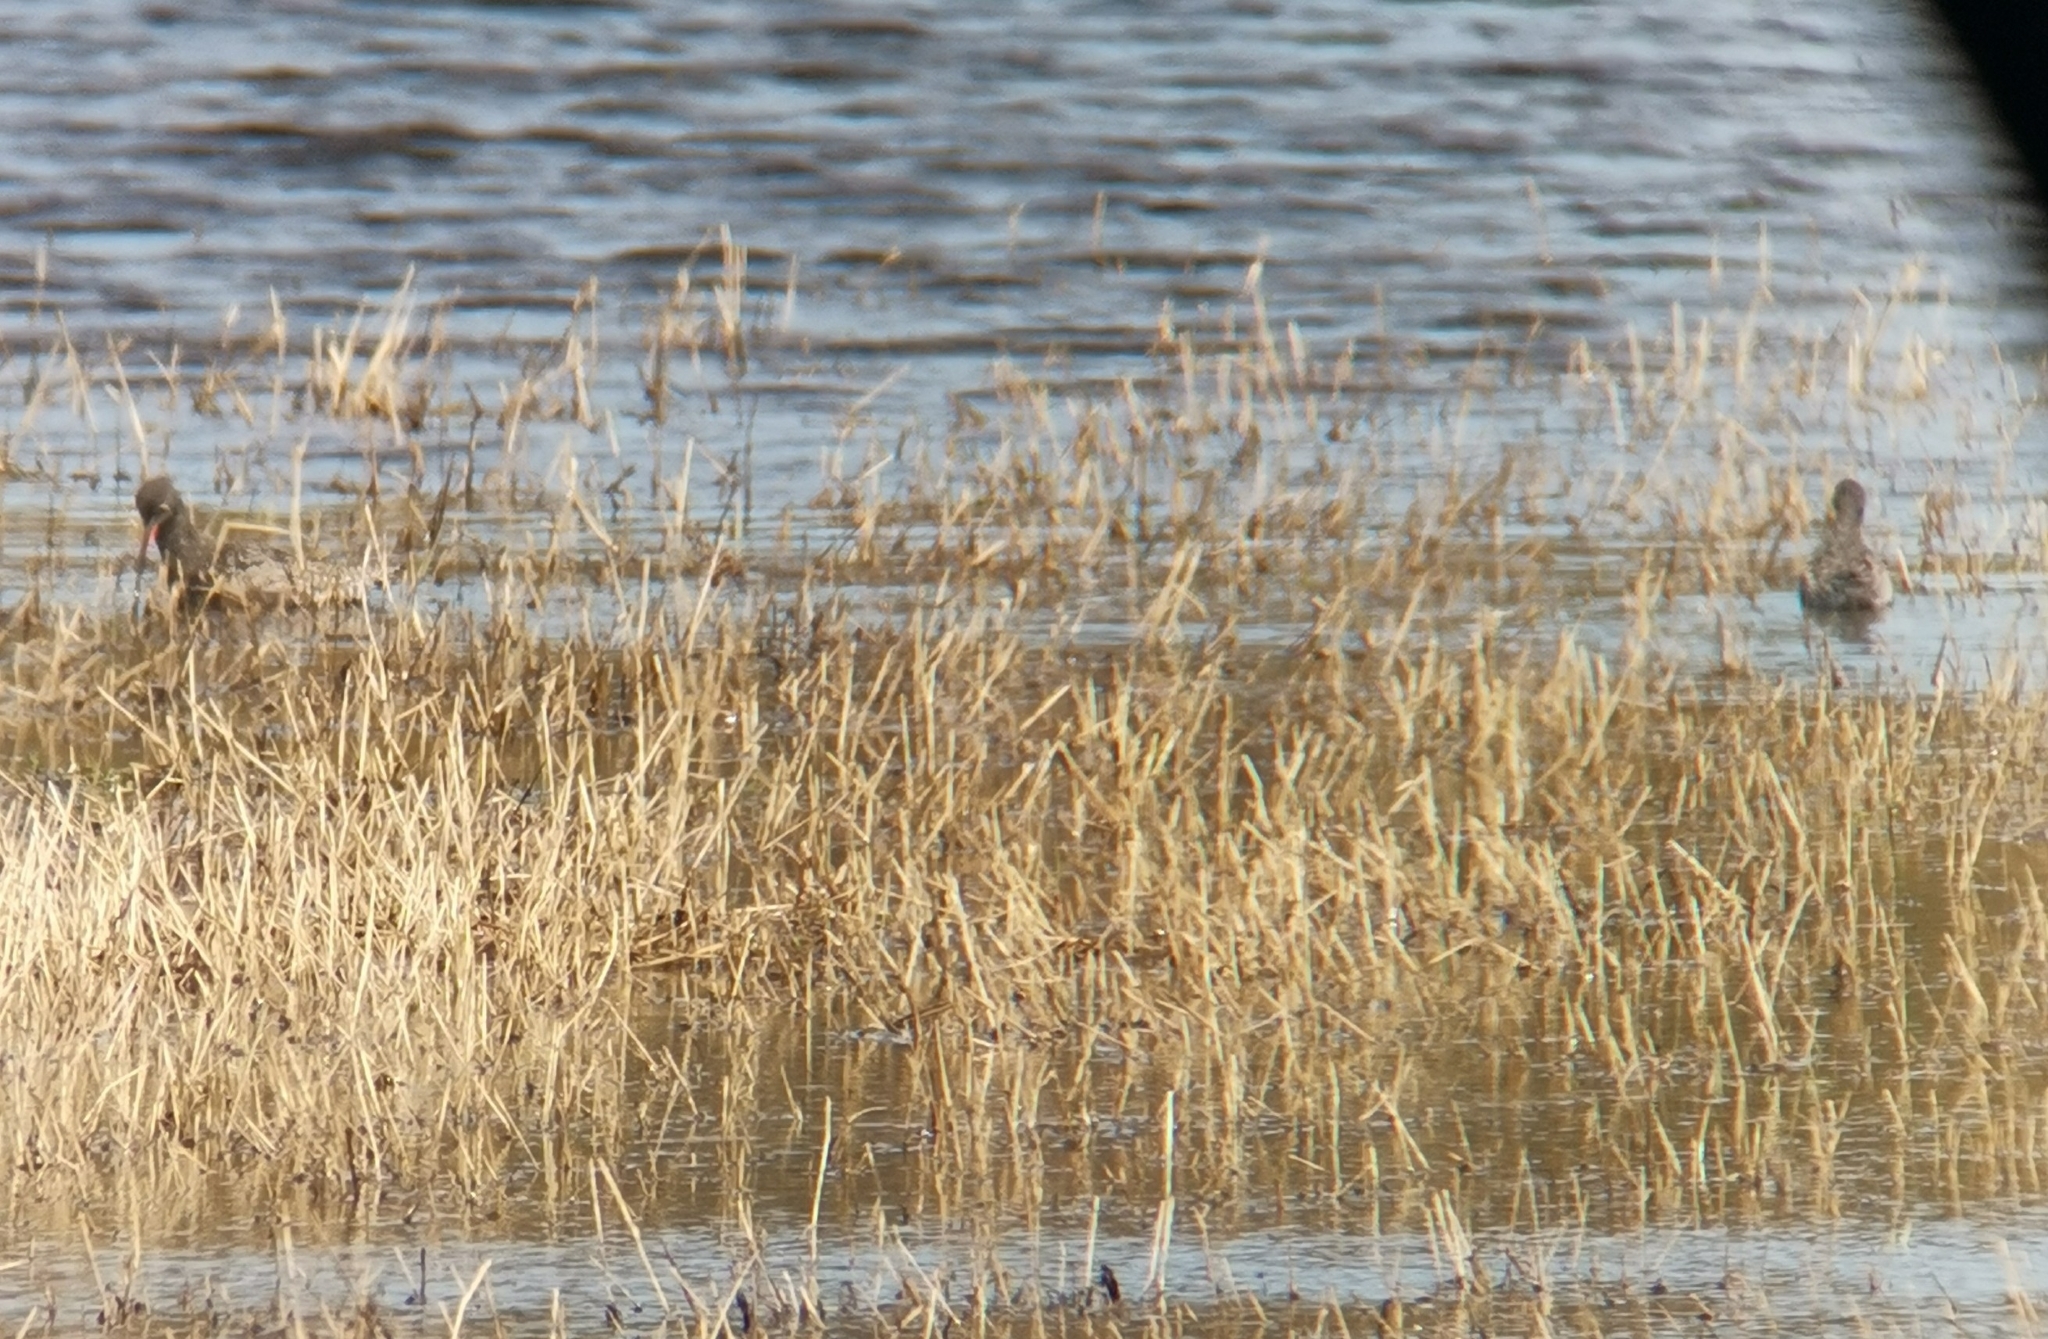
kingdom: Animalia
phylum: Chordata
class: Aves
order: Charadriiformes
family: Scolopacidae
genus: Tringa
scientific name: Tringa erythropus
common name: Spotted redshank
